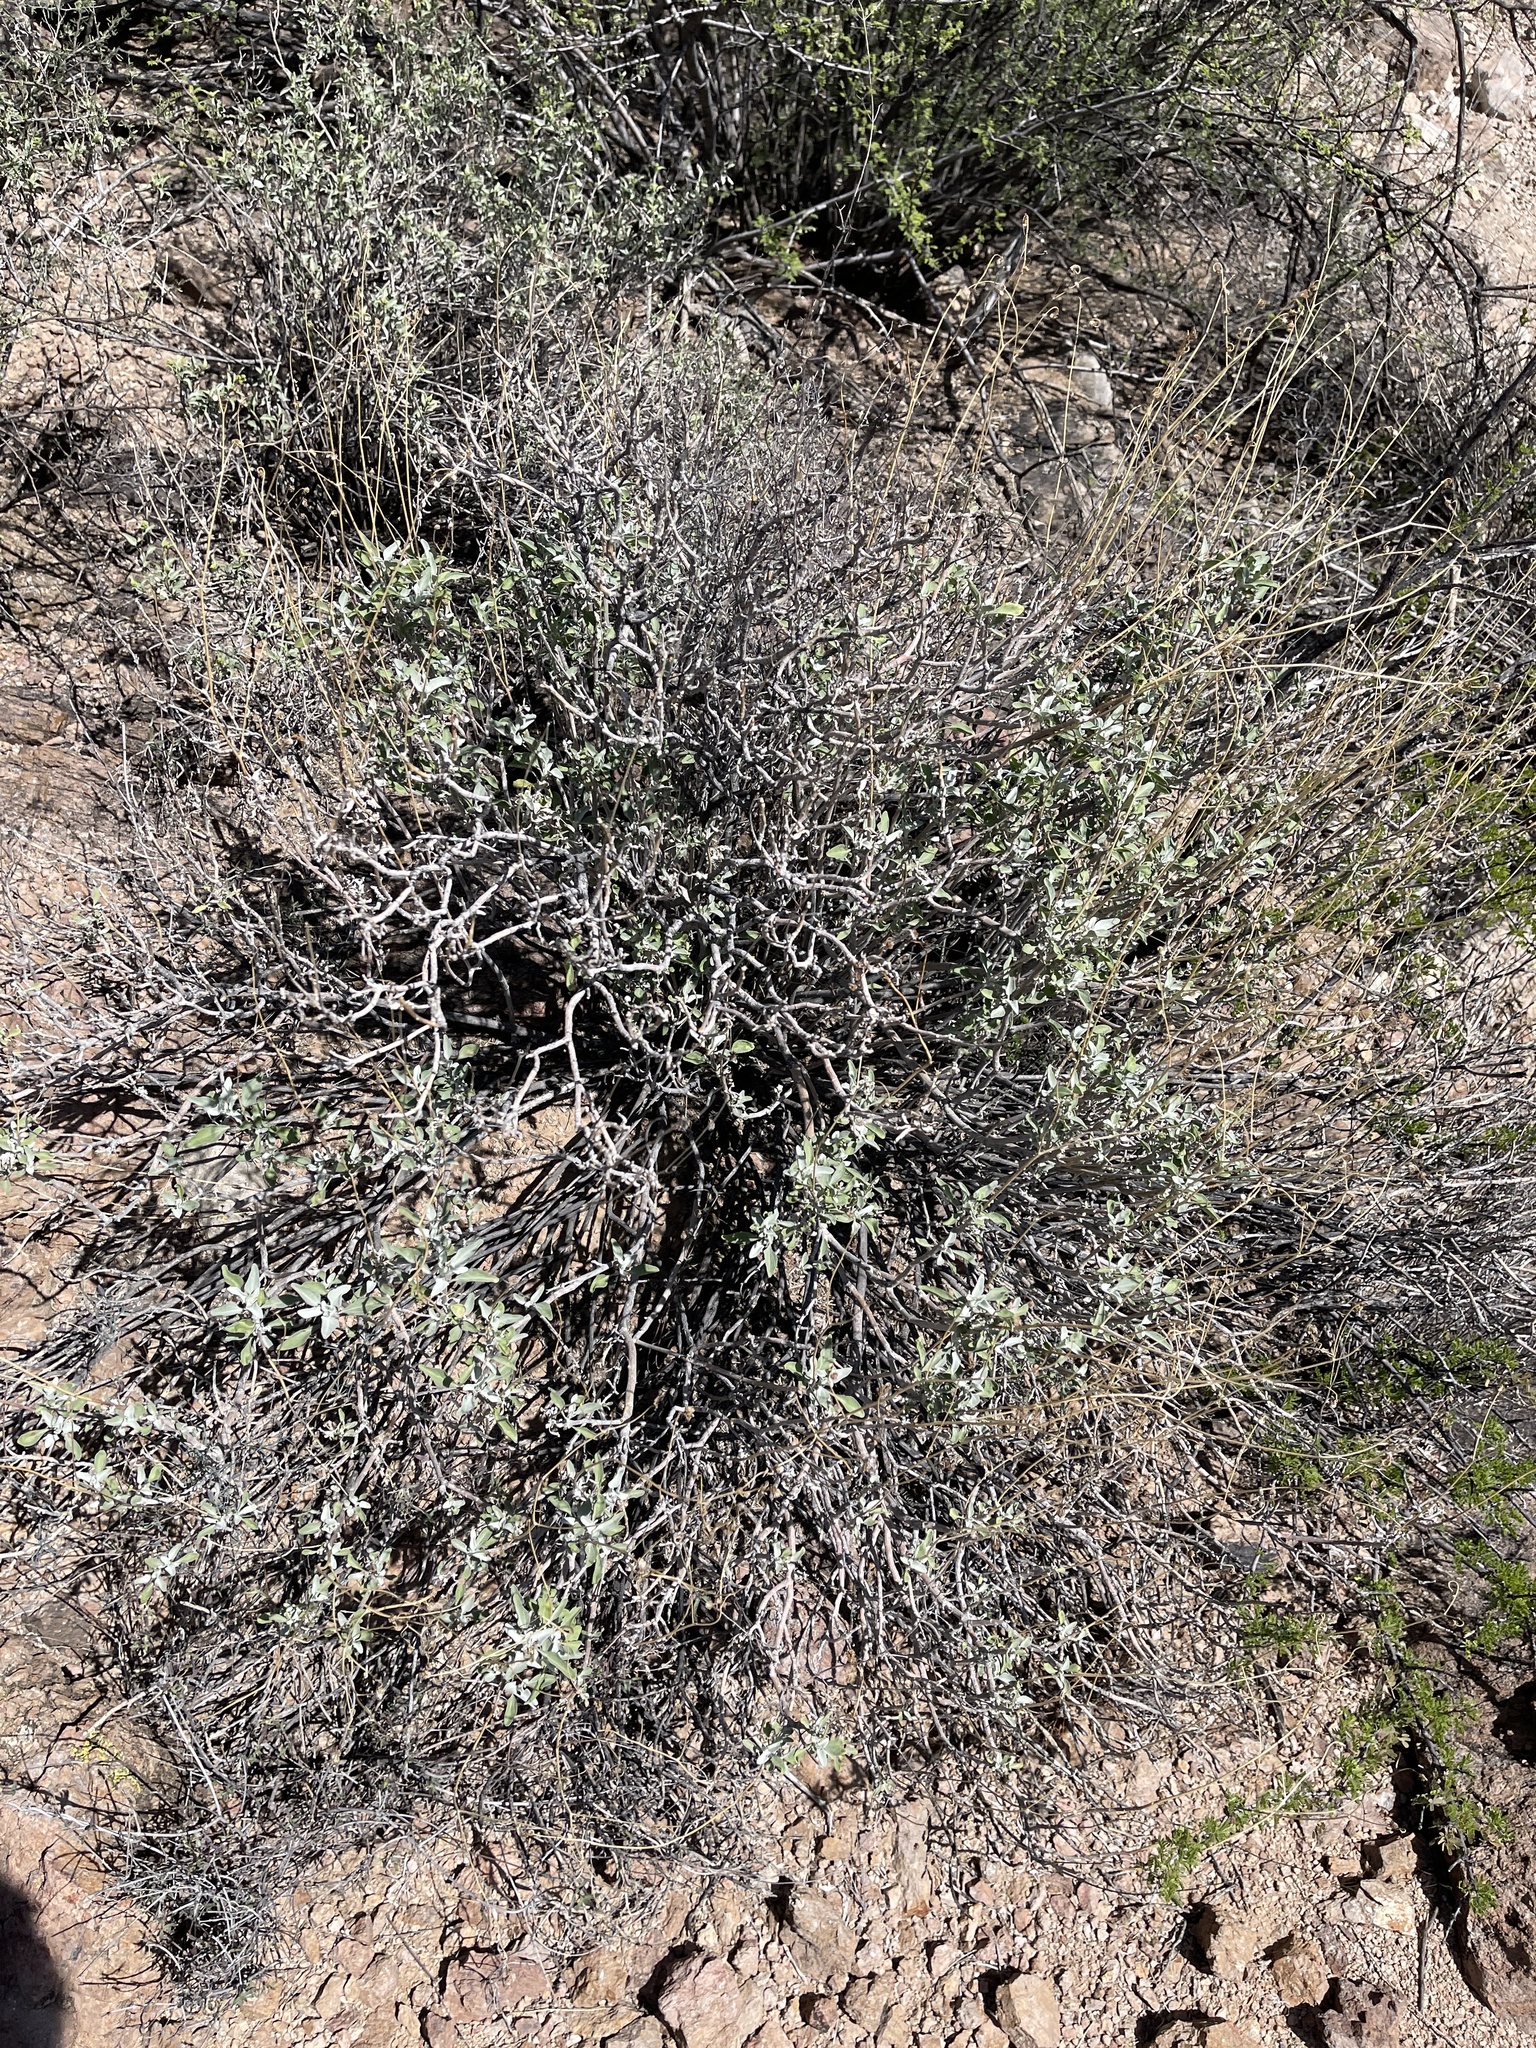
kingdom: Plantae
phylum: Tracheophyta
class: Magnoliopsida
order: Asterales
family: Asteraceae
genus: Encelia
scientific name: Encelia farinosa
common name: Brittlebush
